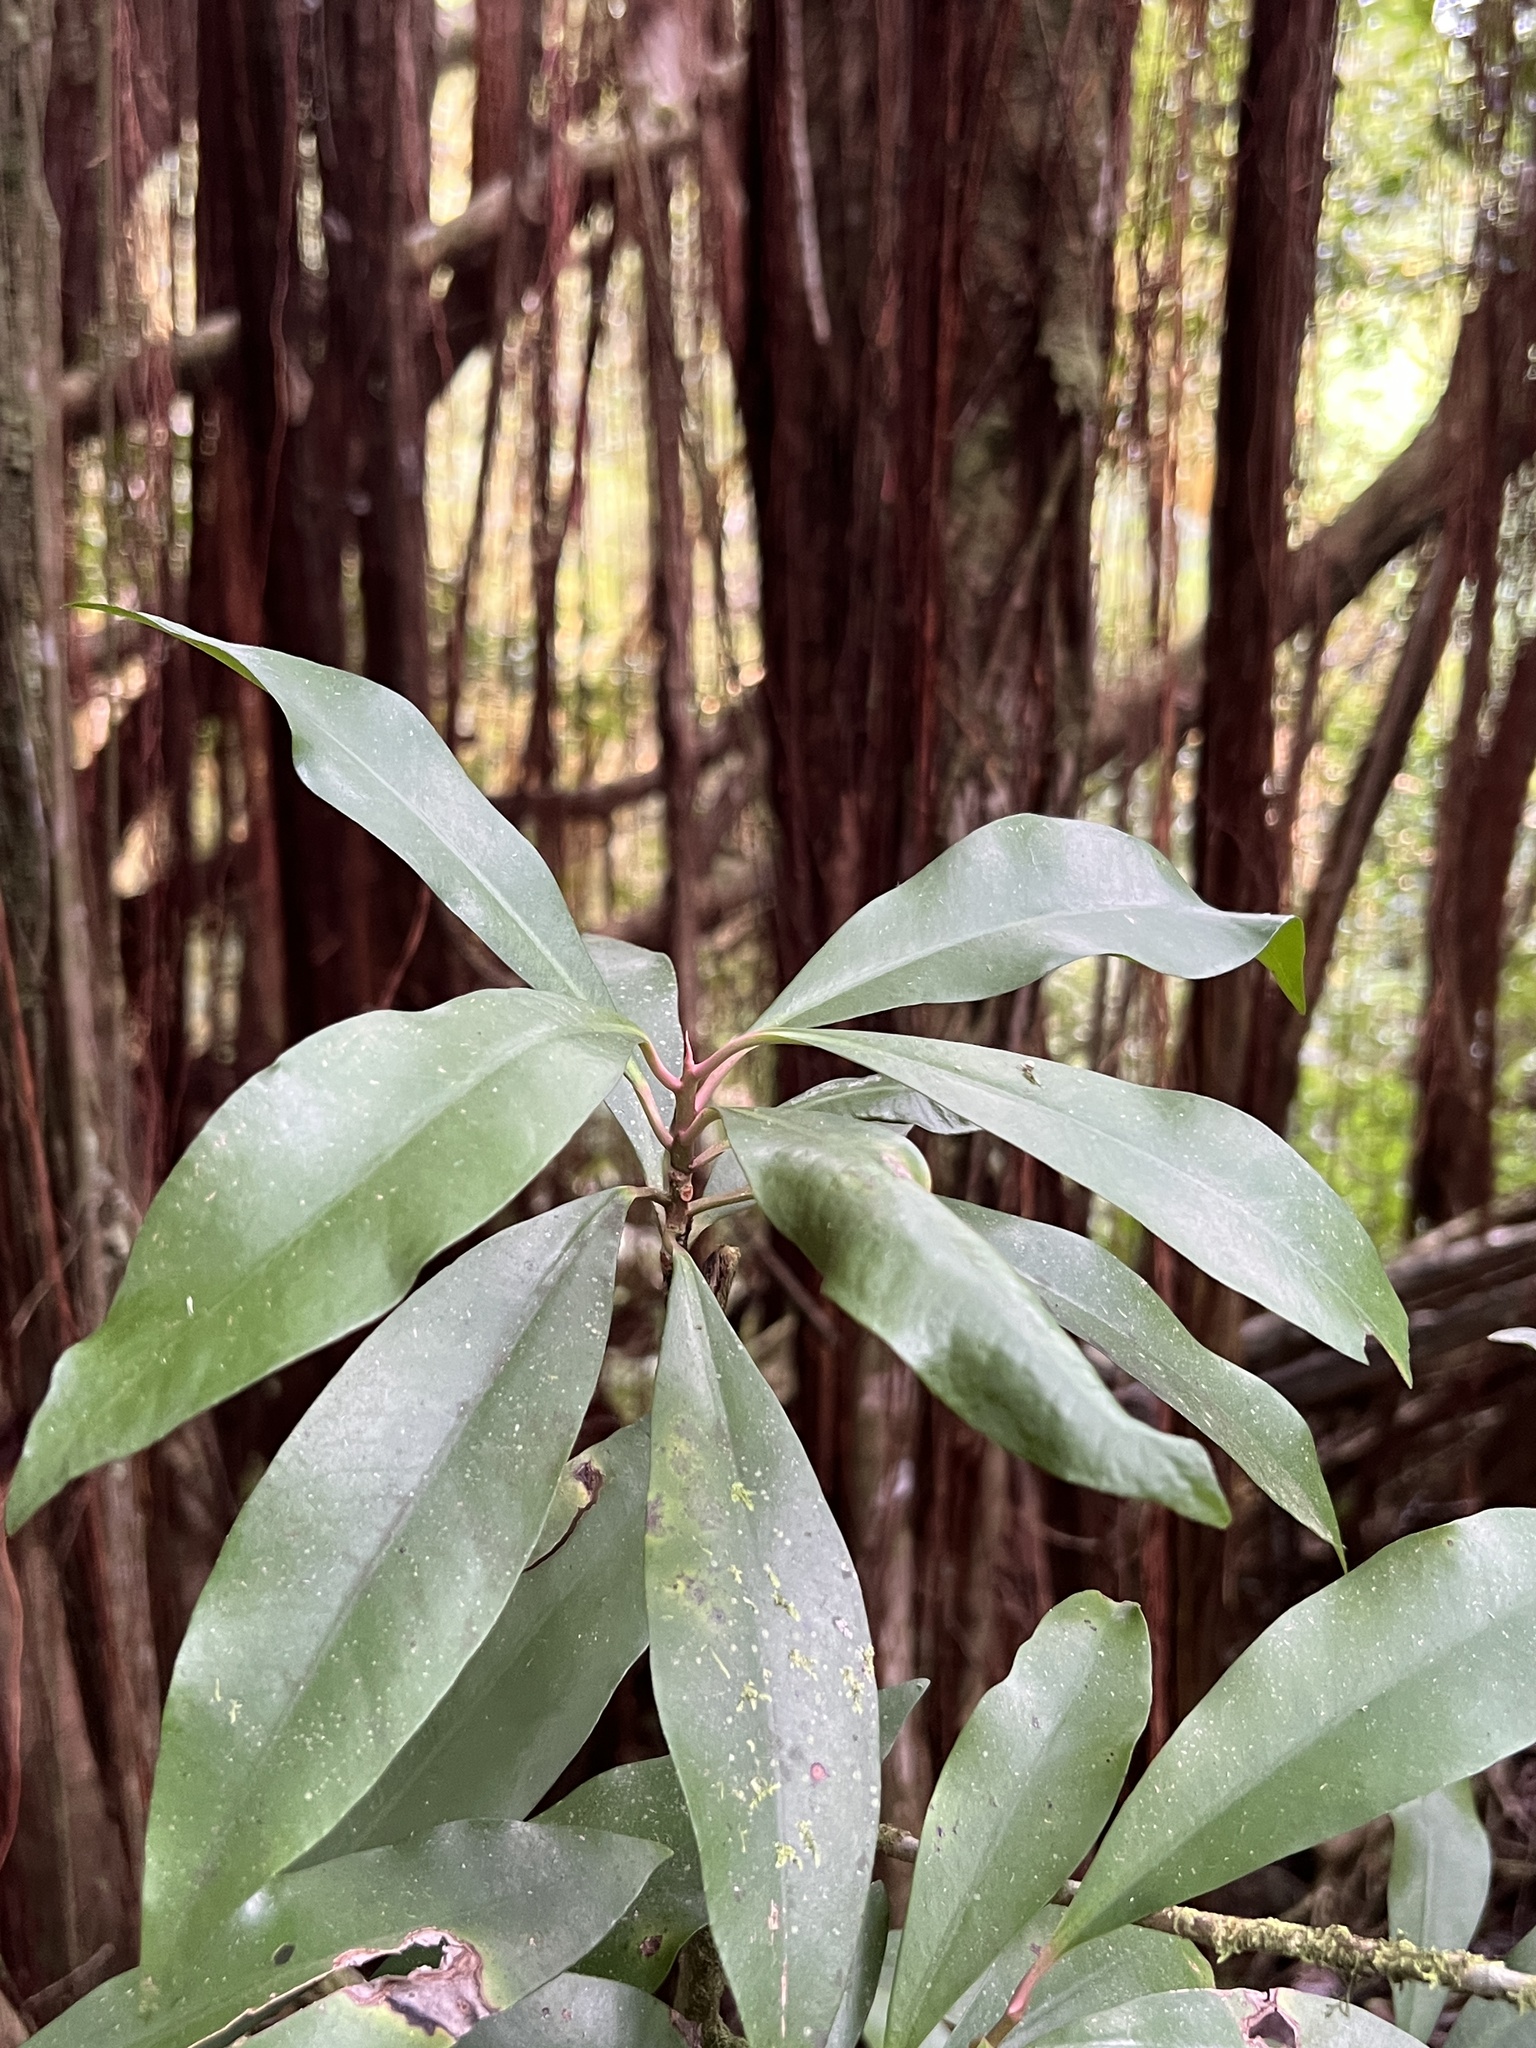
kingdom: Plantae
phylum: Tracheophyta
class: Magnoliopsida
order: Ericales
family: Primulaceae
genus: Ardisia
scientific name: Ardisia elliptica
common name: Shoebutton
